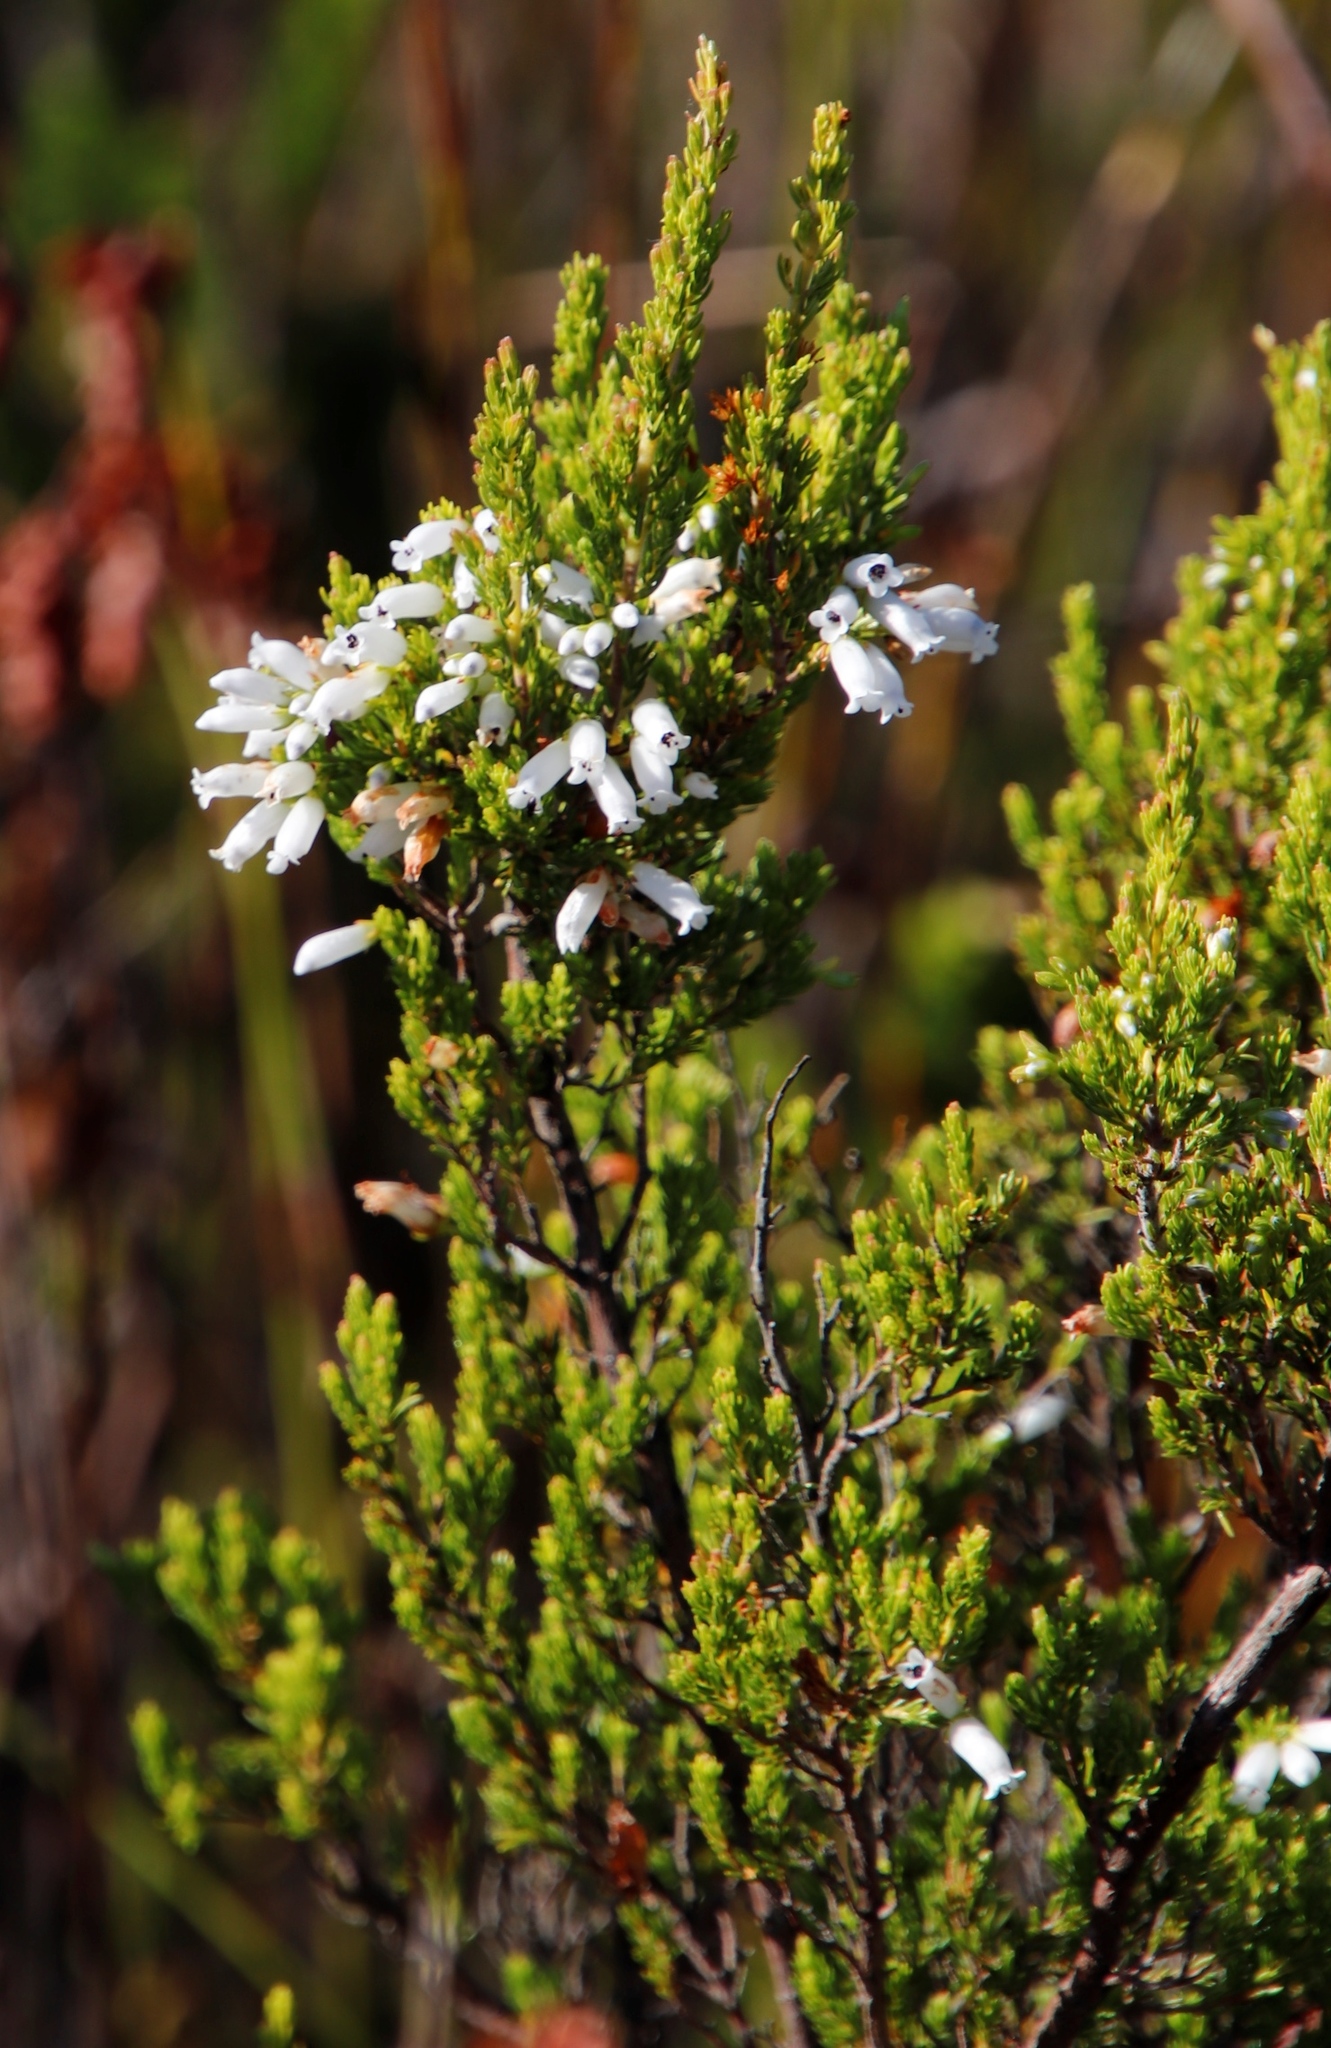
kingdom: Plantae
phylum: Tracheophyta
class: Magnoliopsida
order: Ericales
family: Ericaceae
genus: Erica
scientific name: Erica sitiens
